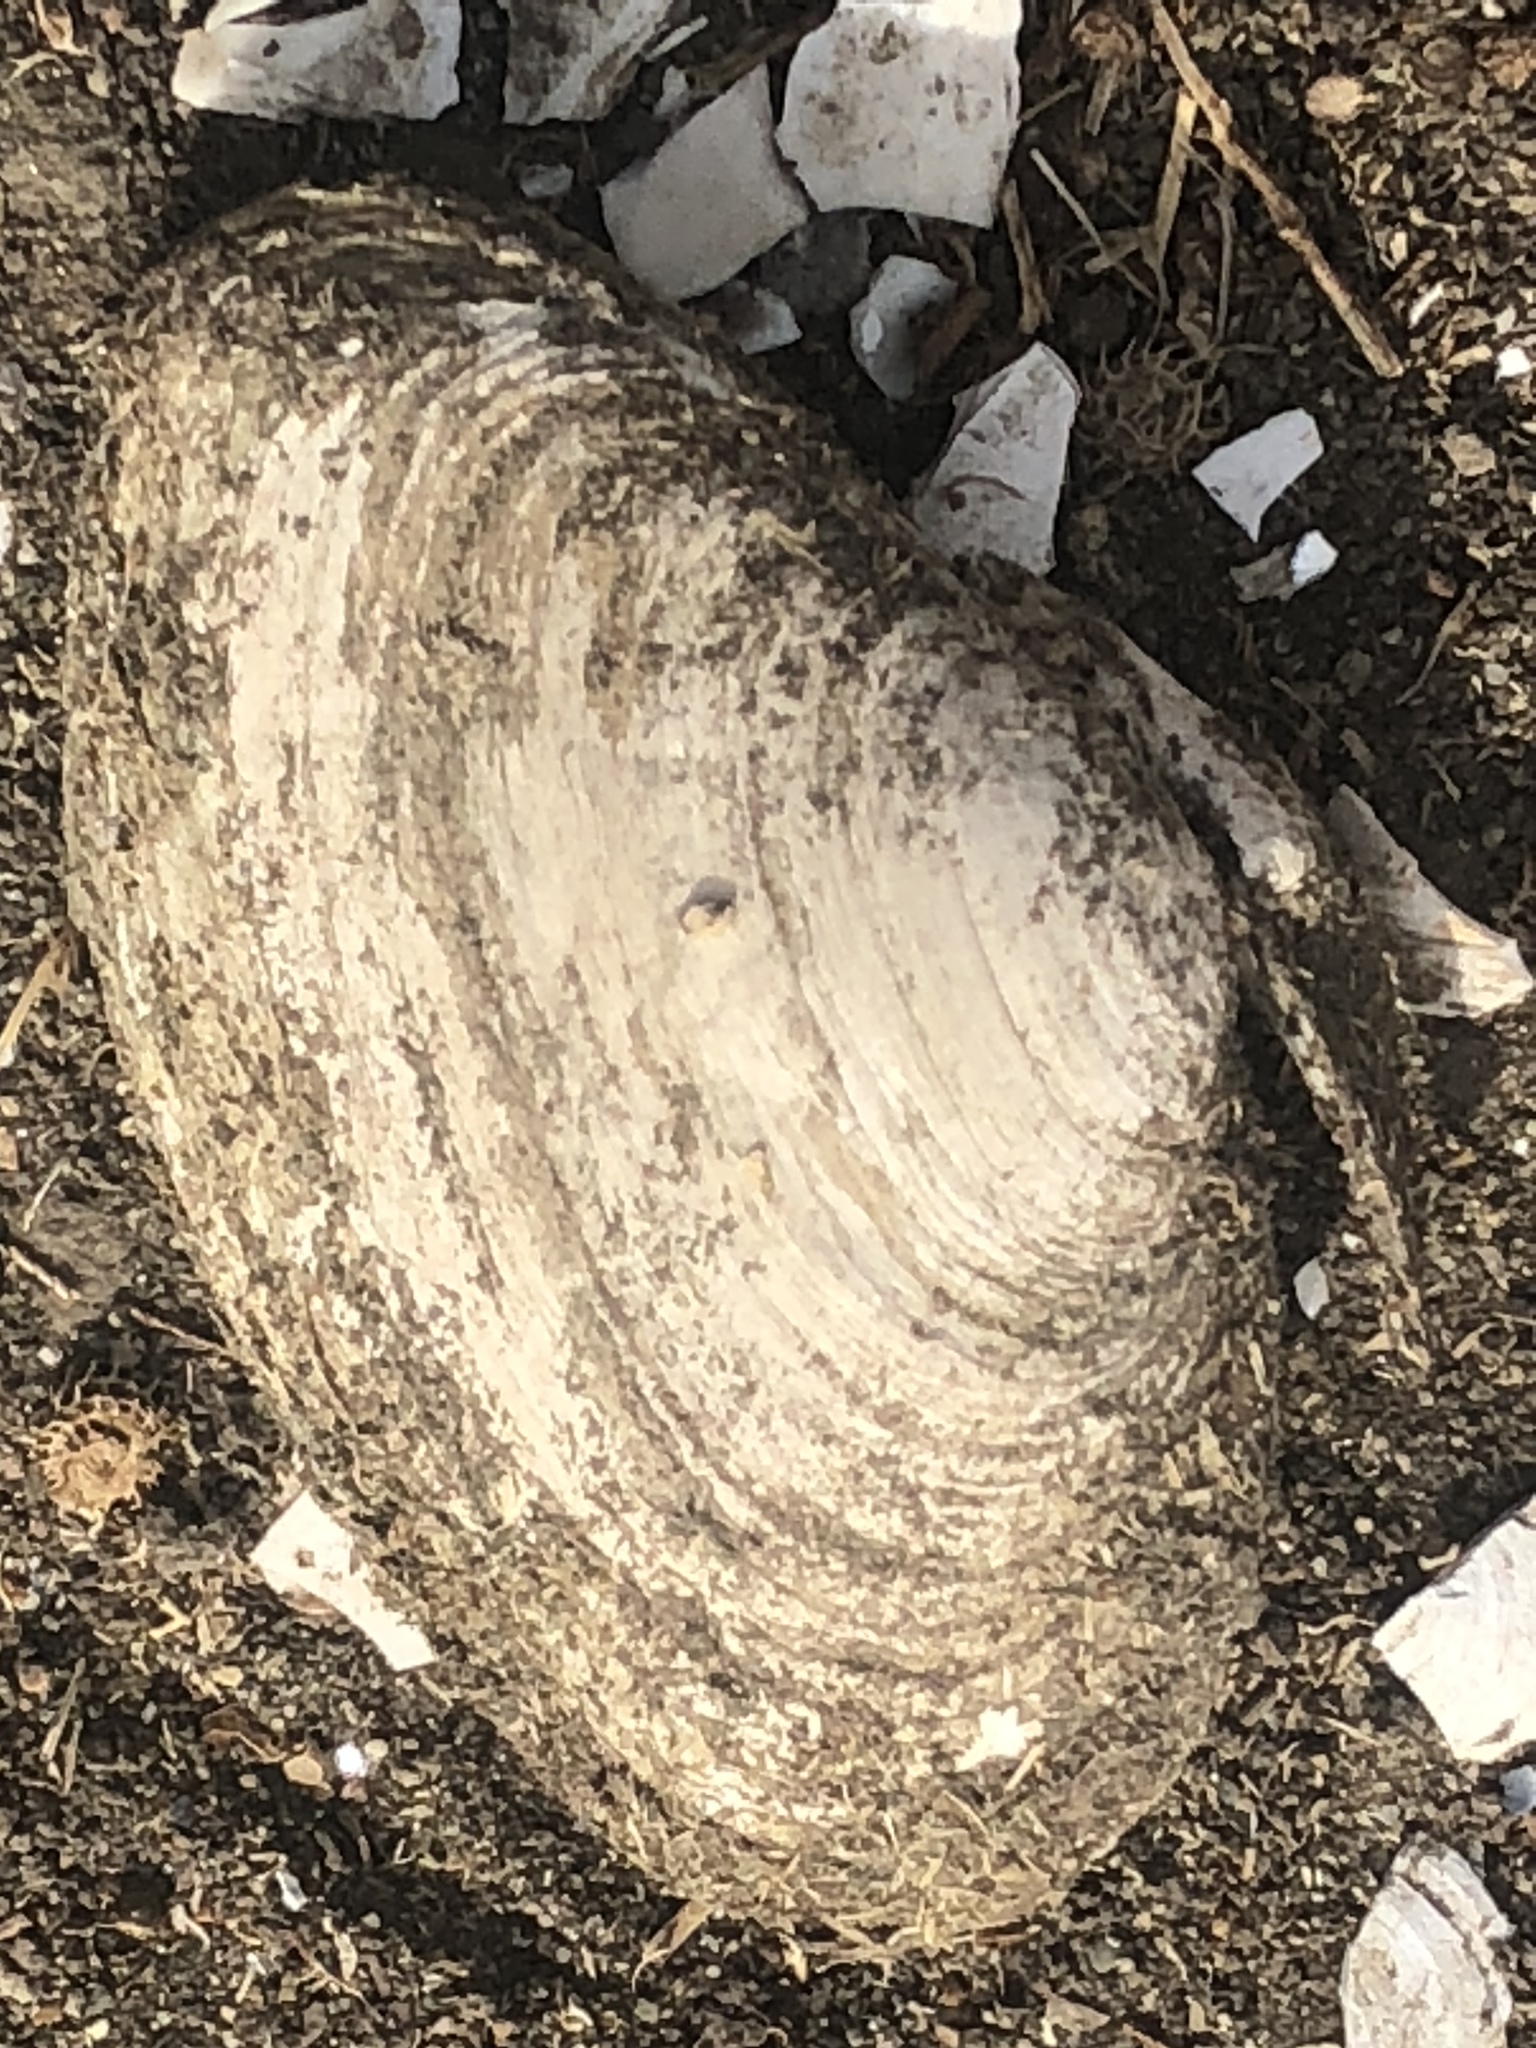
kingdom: Animalia
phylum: Mollusca
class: Bivalvia
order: Myida
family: Myidae
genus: Mya
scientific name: Mya arenaria
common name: Soft-shelled clam
